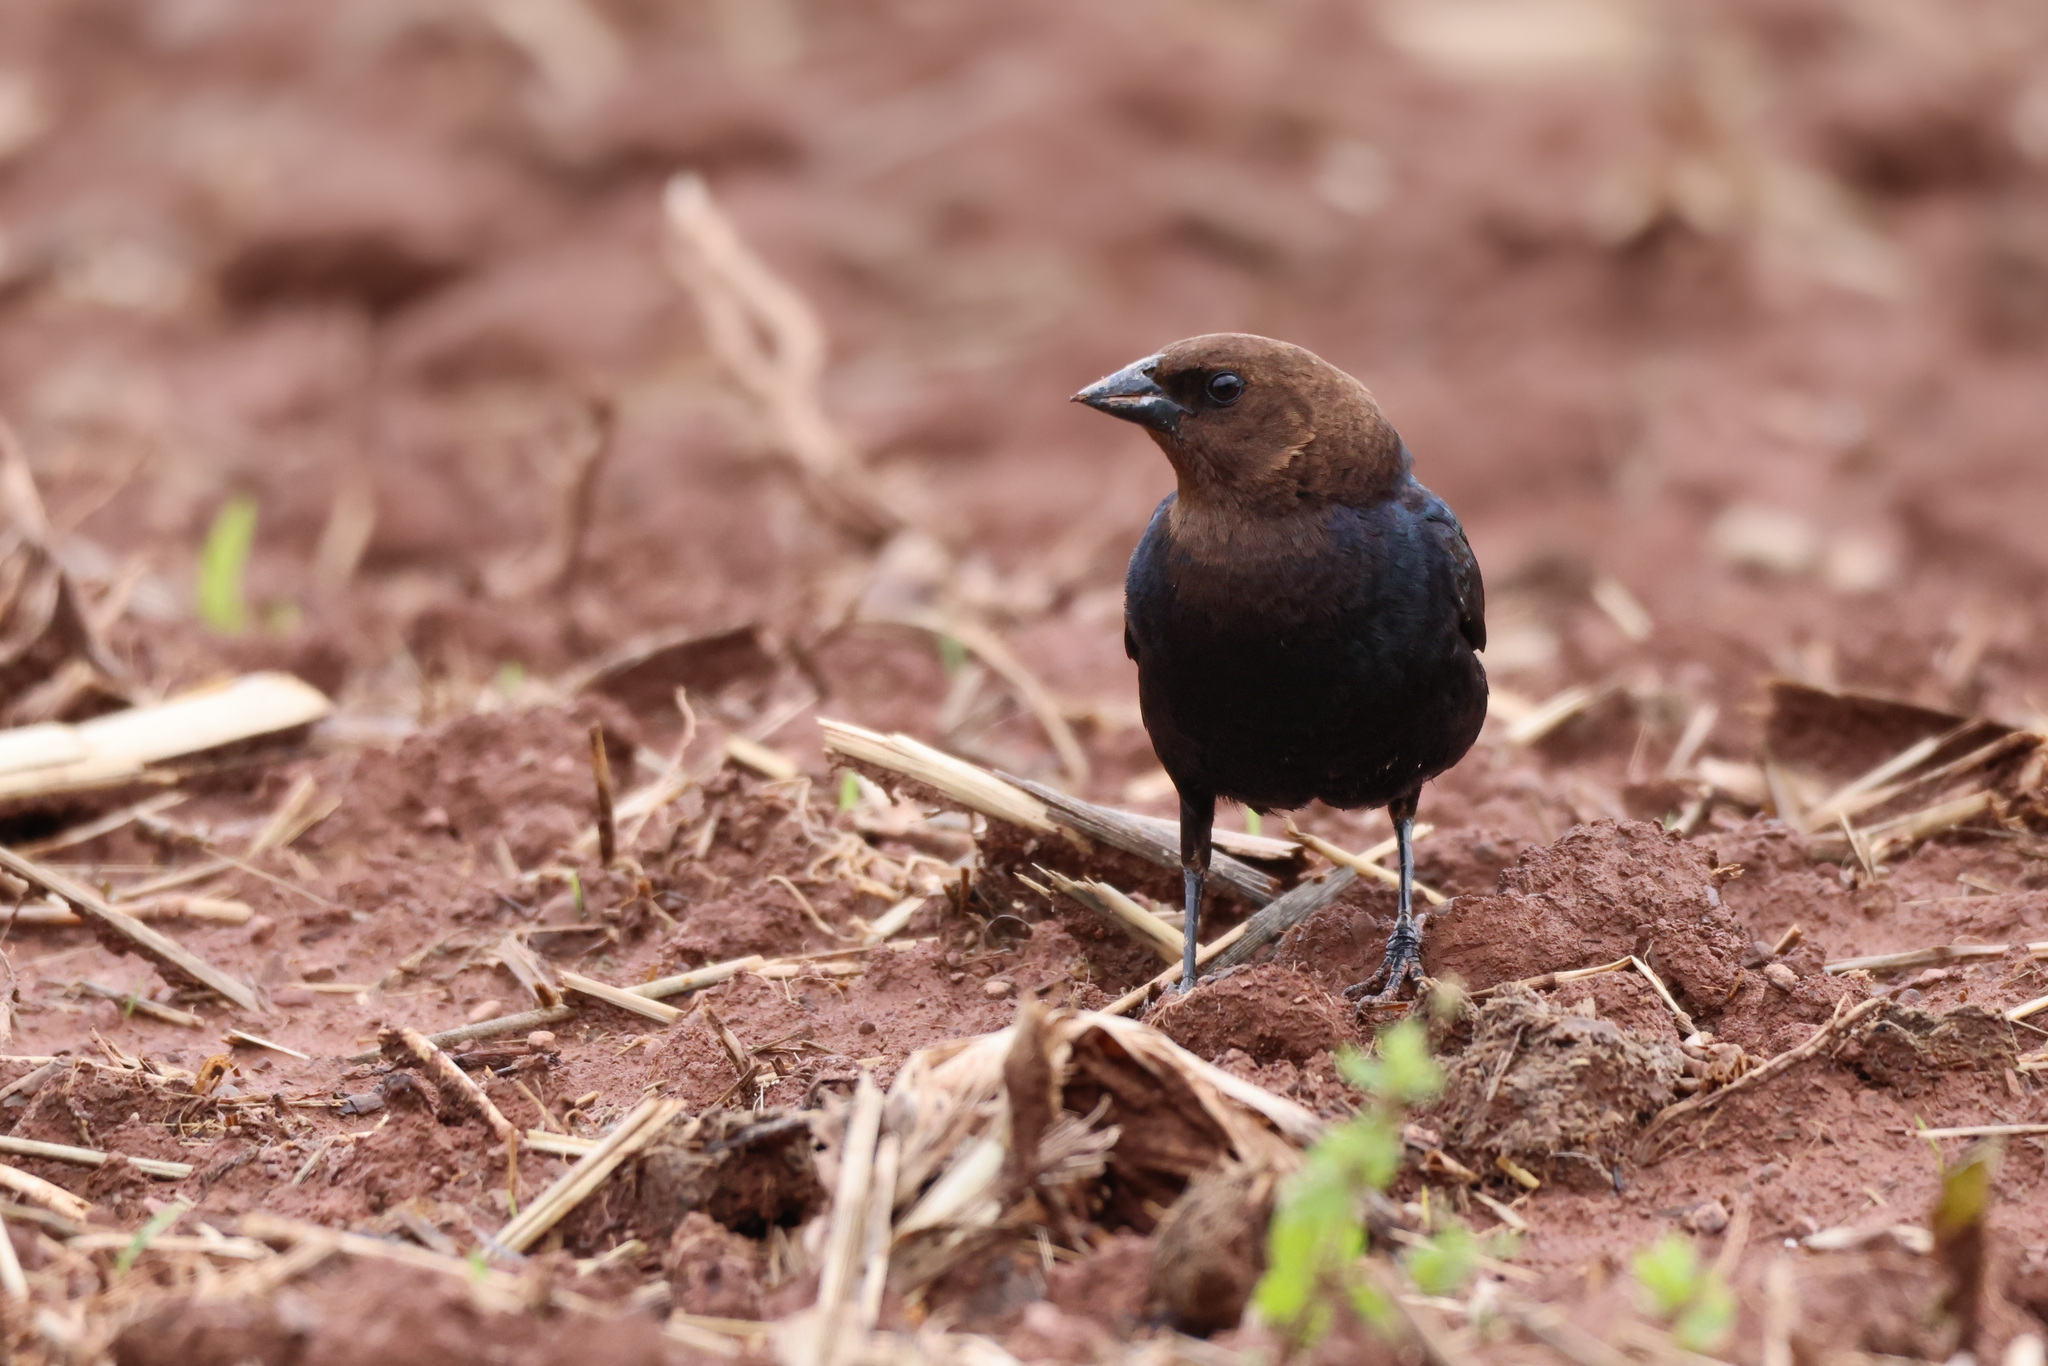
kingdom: Animalia
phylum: Chordata
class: Aves
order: Passeriformes
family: Icteridae
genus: Molothrus
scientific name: Molothrus ater
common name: Brown-headed cowbird
